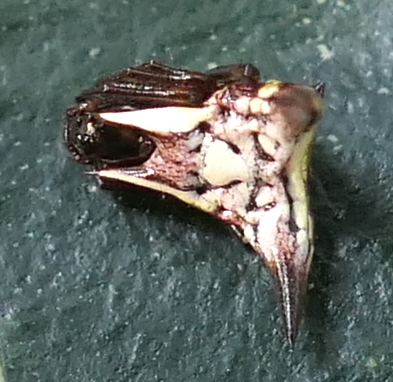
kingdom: Animalia
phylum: Arthropoda
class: Arachnida
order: Araneae
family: Araneidae
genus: Micrathena
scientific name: Micrathena evansi
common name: Orb weavers
